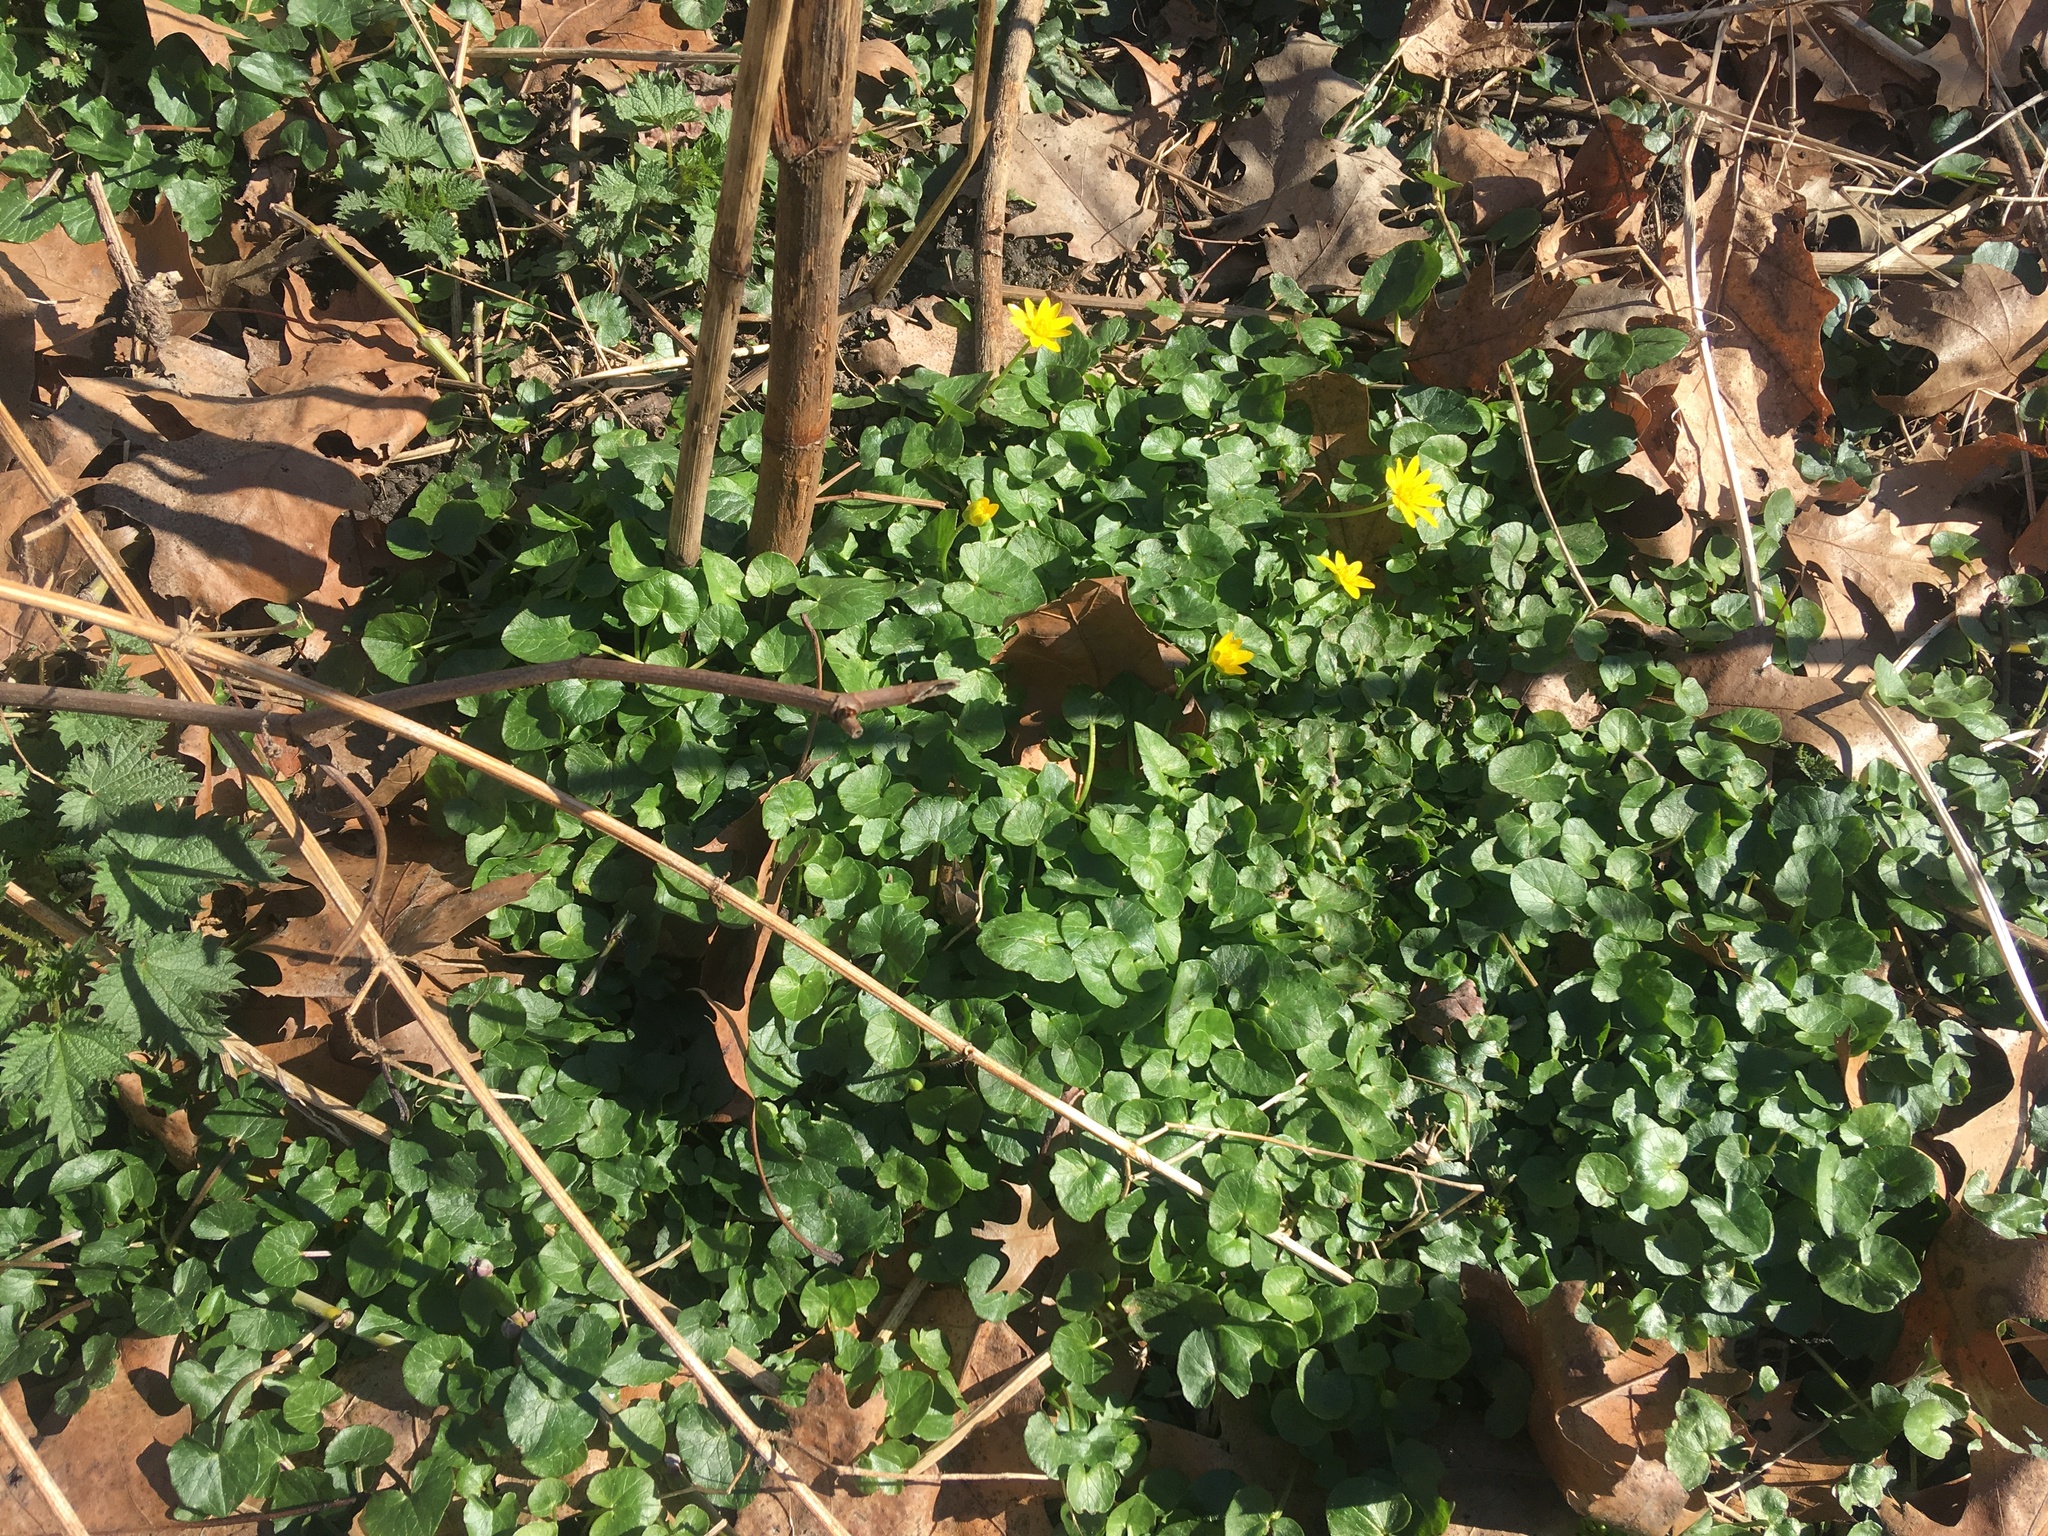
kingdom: Plantae
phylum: Tracheophyta
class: Magnoliopsida
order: Ranunculales
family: Ranunculaceae
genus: Ficaria
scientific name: Ficaria verna
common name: Lesser celandine
